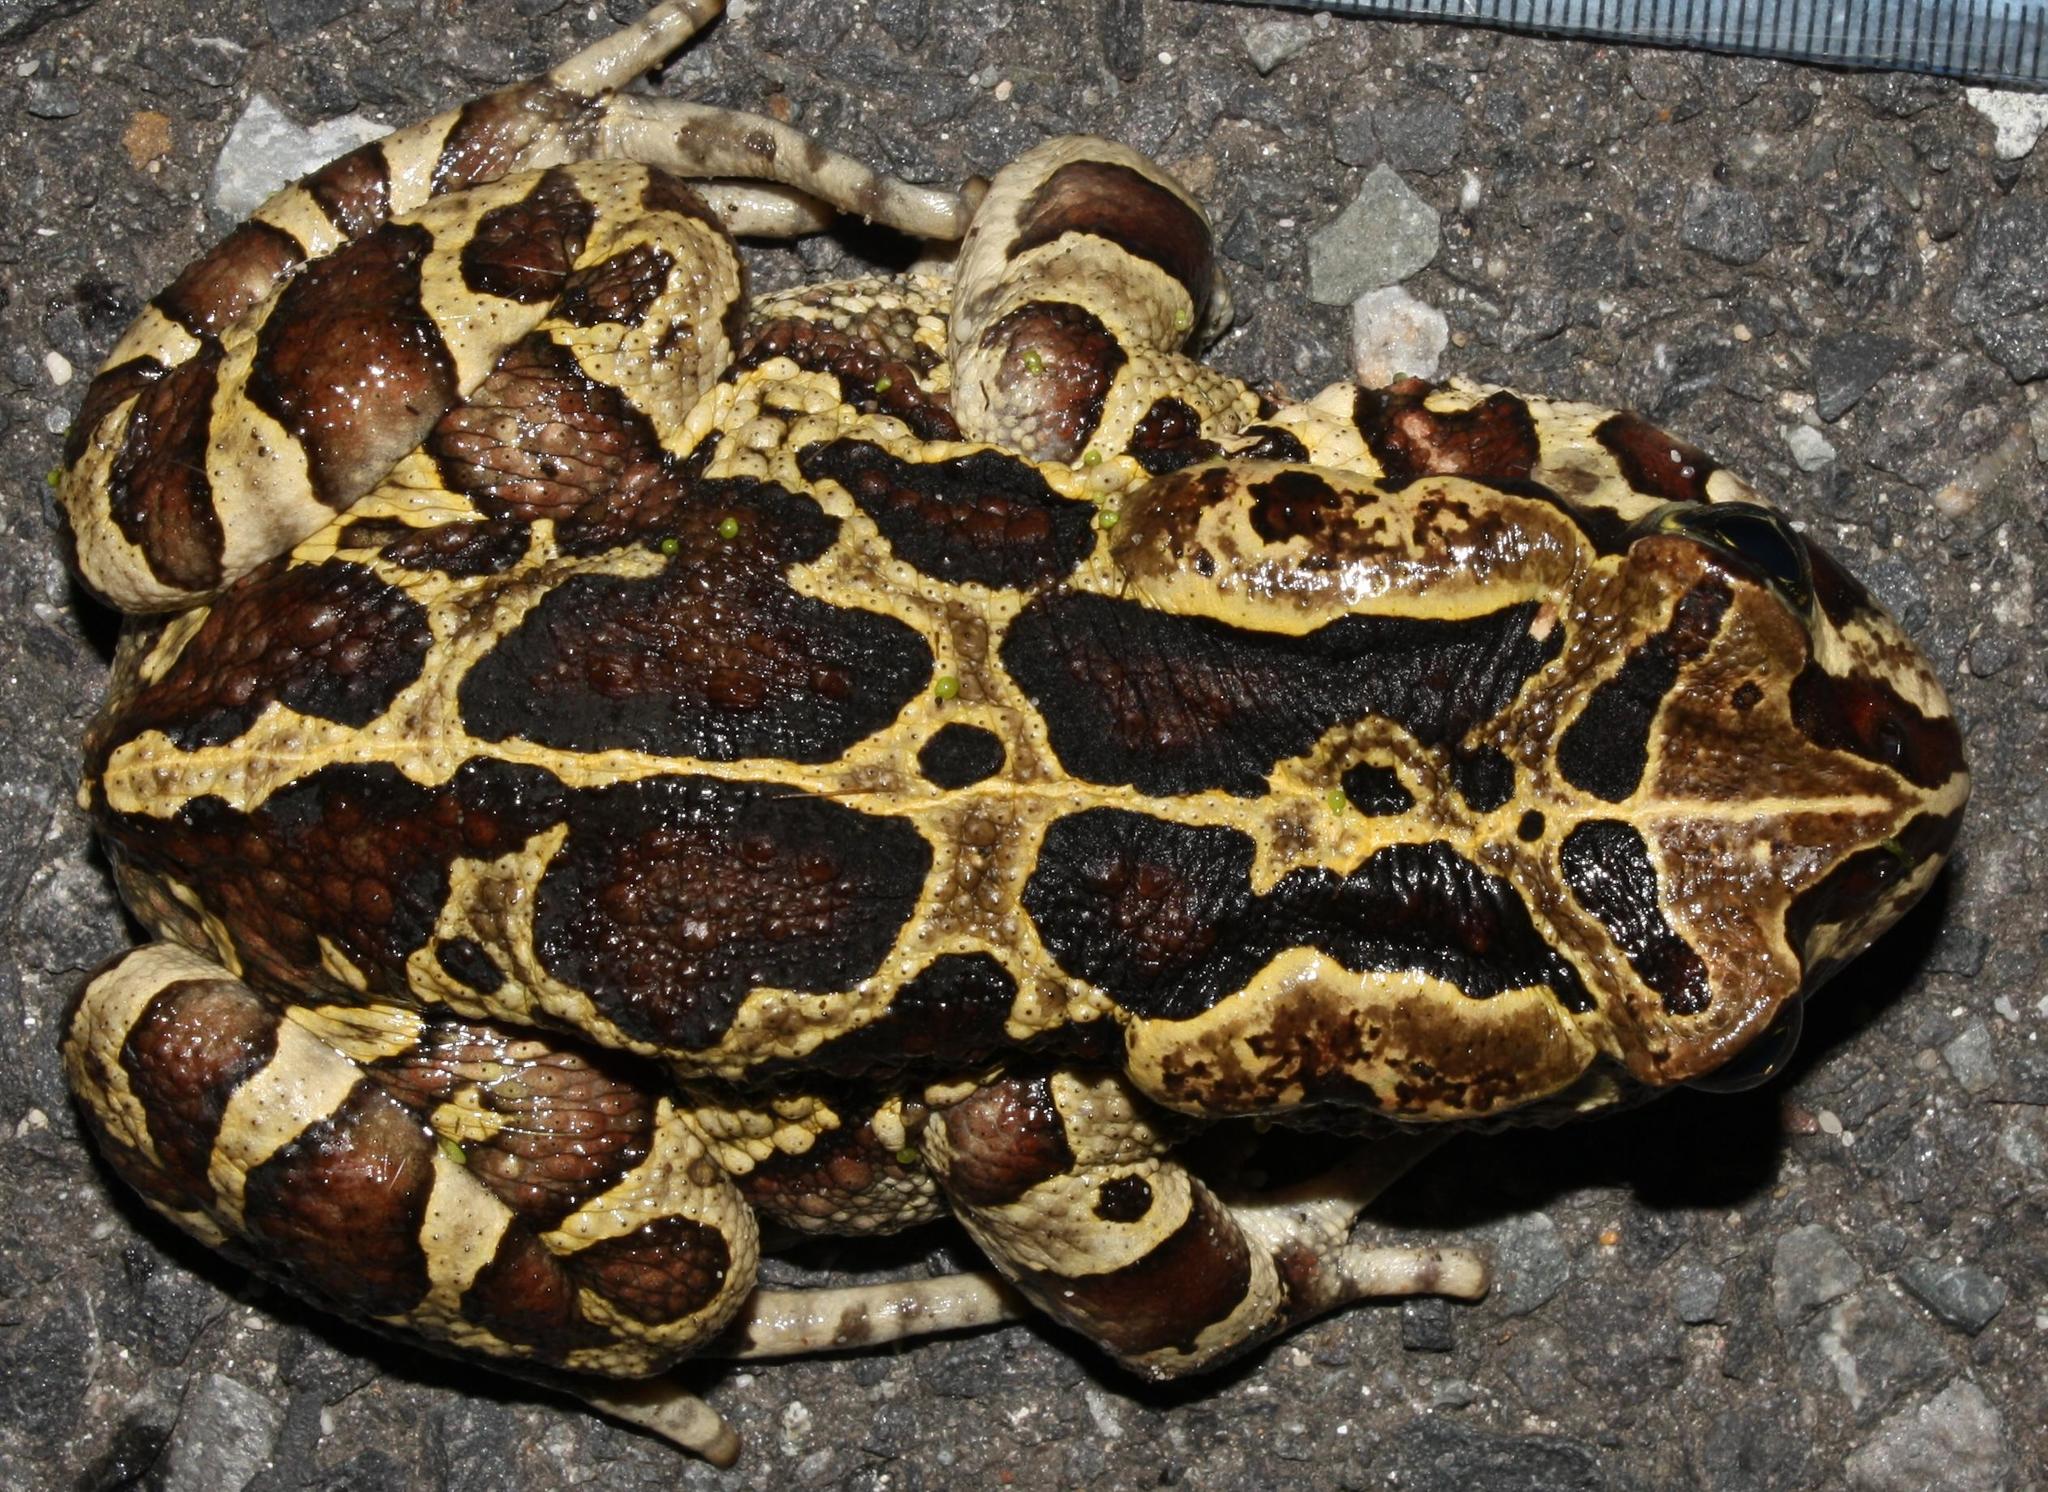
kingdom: Animalia
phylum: Chordata
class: Amphibia
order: Anura
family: Bufonidae
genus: Sclerophrys
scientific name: Sclerophrys pantherina
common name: Panther toad
